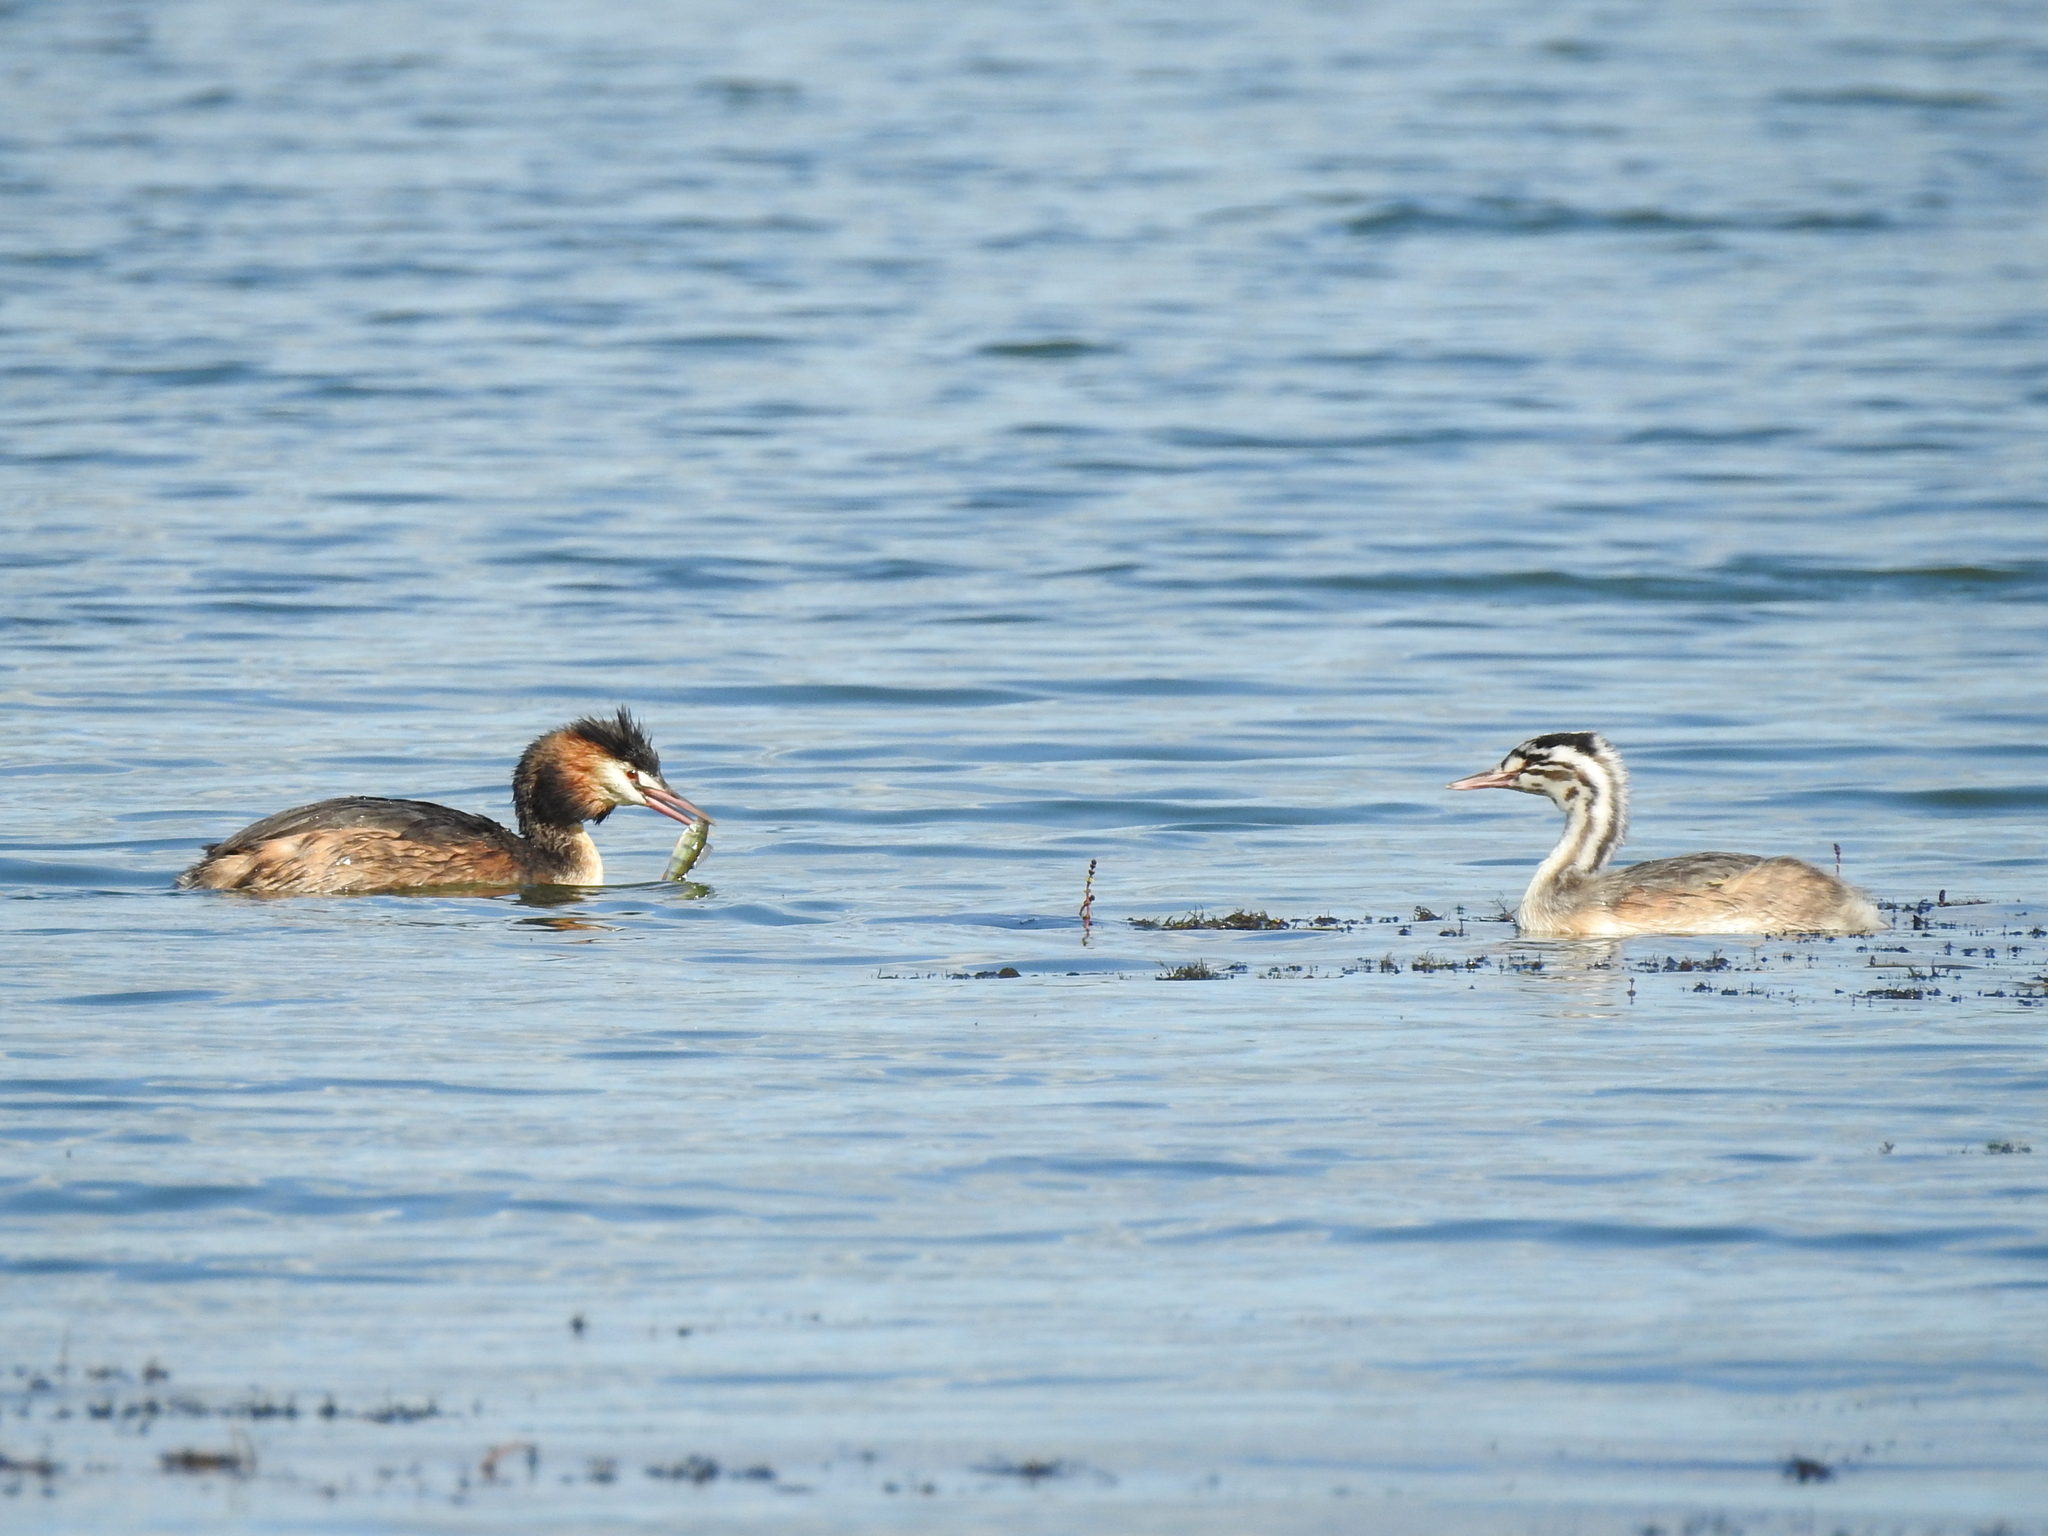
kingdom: Animalia
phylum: Chordata
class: Aves
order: Podicipediformes
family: Podicipedidae
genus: Podiceps
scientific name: Podiceps cristatus
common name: Great crested grebe
